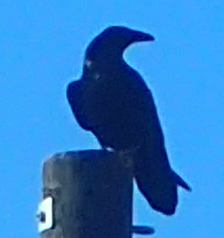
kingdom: Animalia
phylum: Chordata
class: Aves
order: Passeriformes
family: Corvidae
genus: Corvus
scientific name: Corvus corax
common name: Common raven
